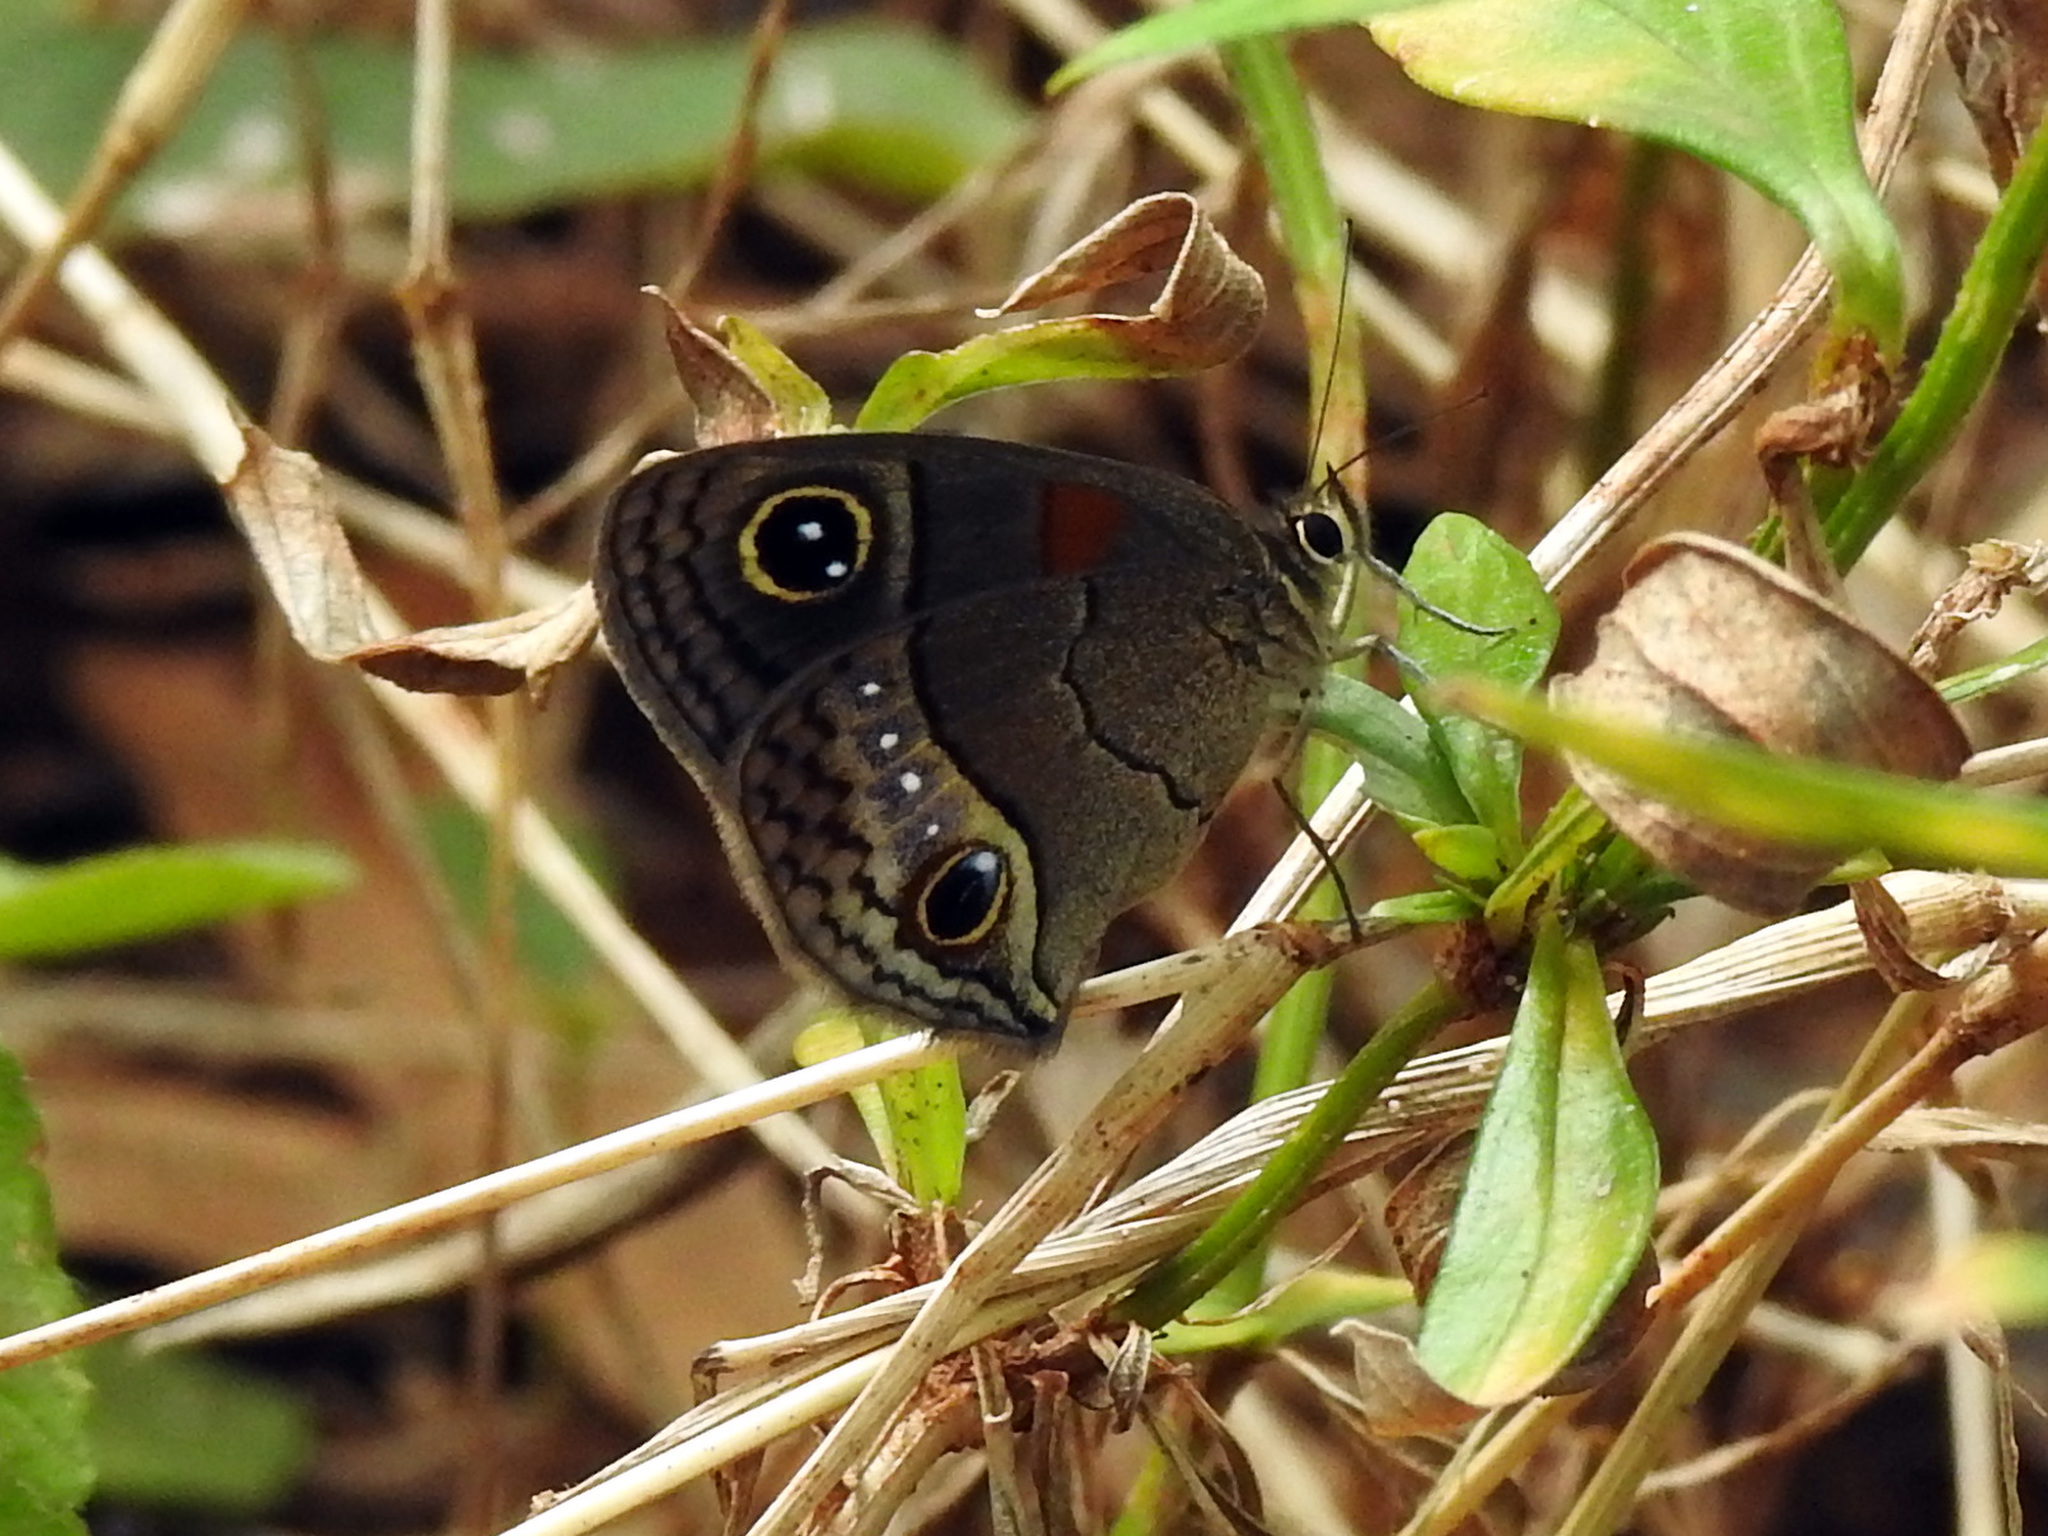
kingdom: Animalia
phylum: Arthropoda
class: Insecta
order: Lepidoptera
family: Nymphalidae
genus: Calisto
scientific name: Calisto herophile
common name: Cuban calisto
